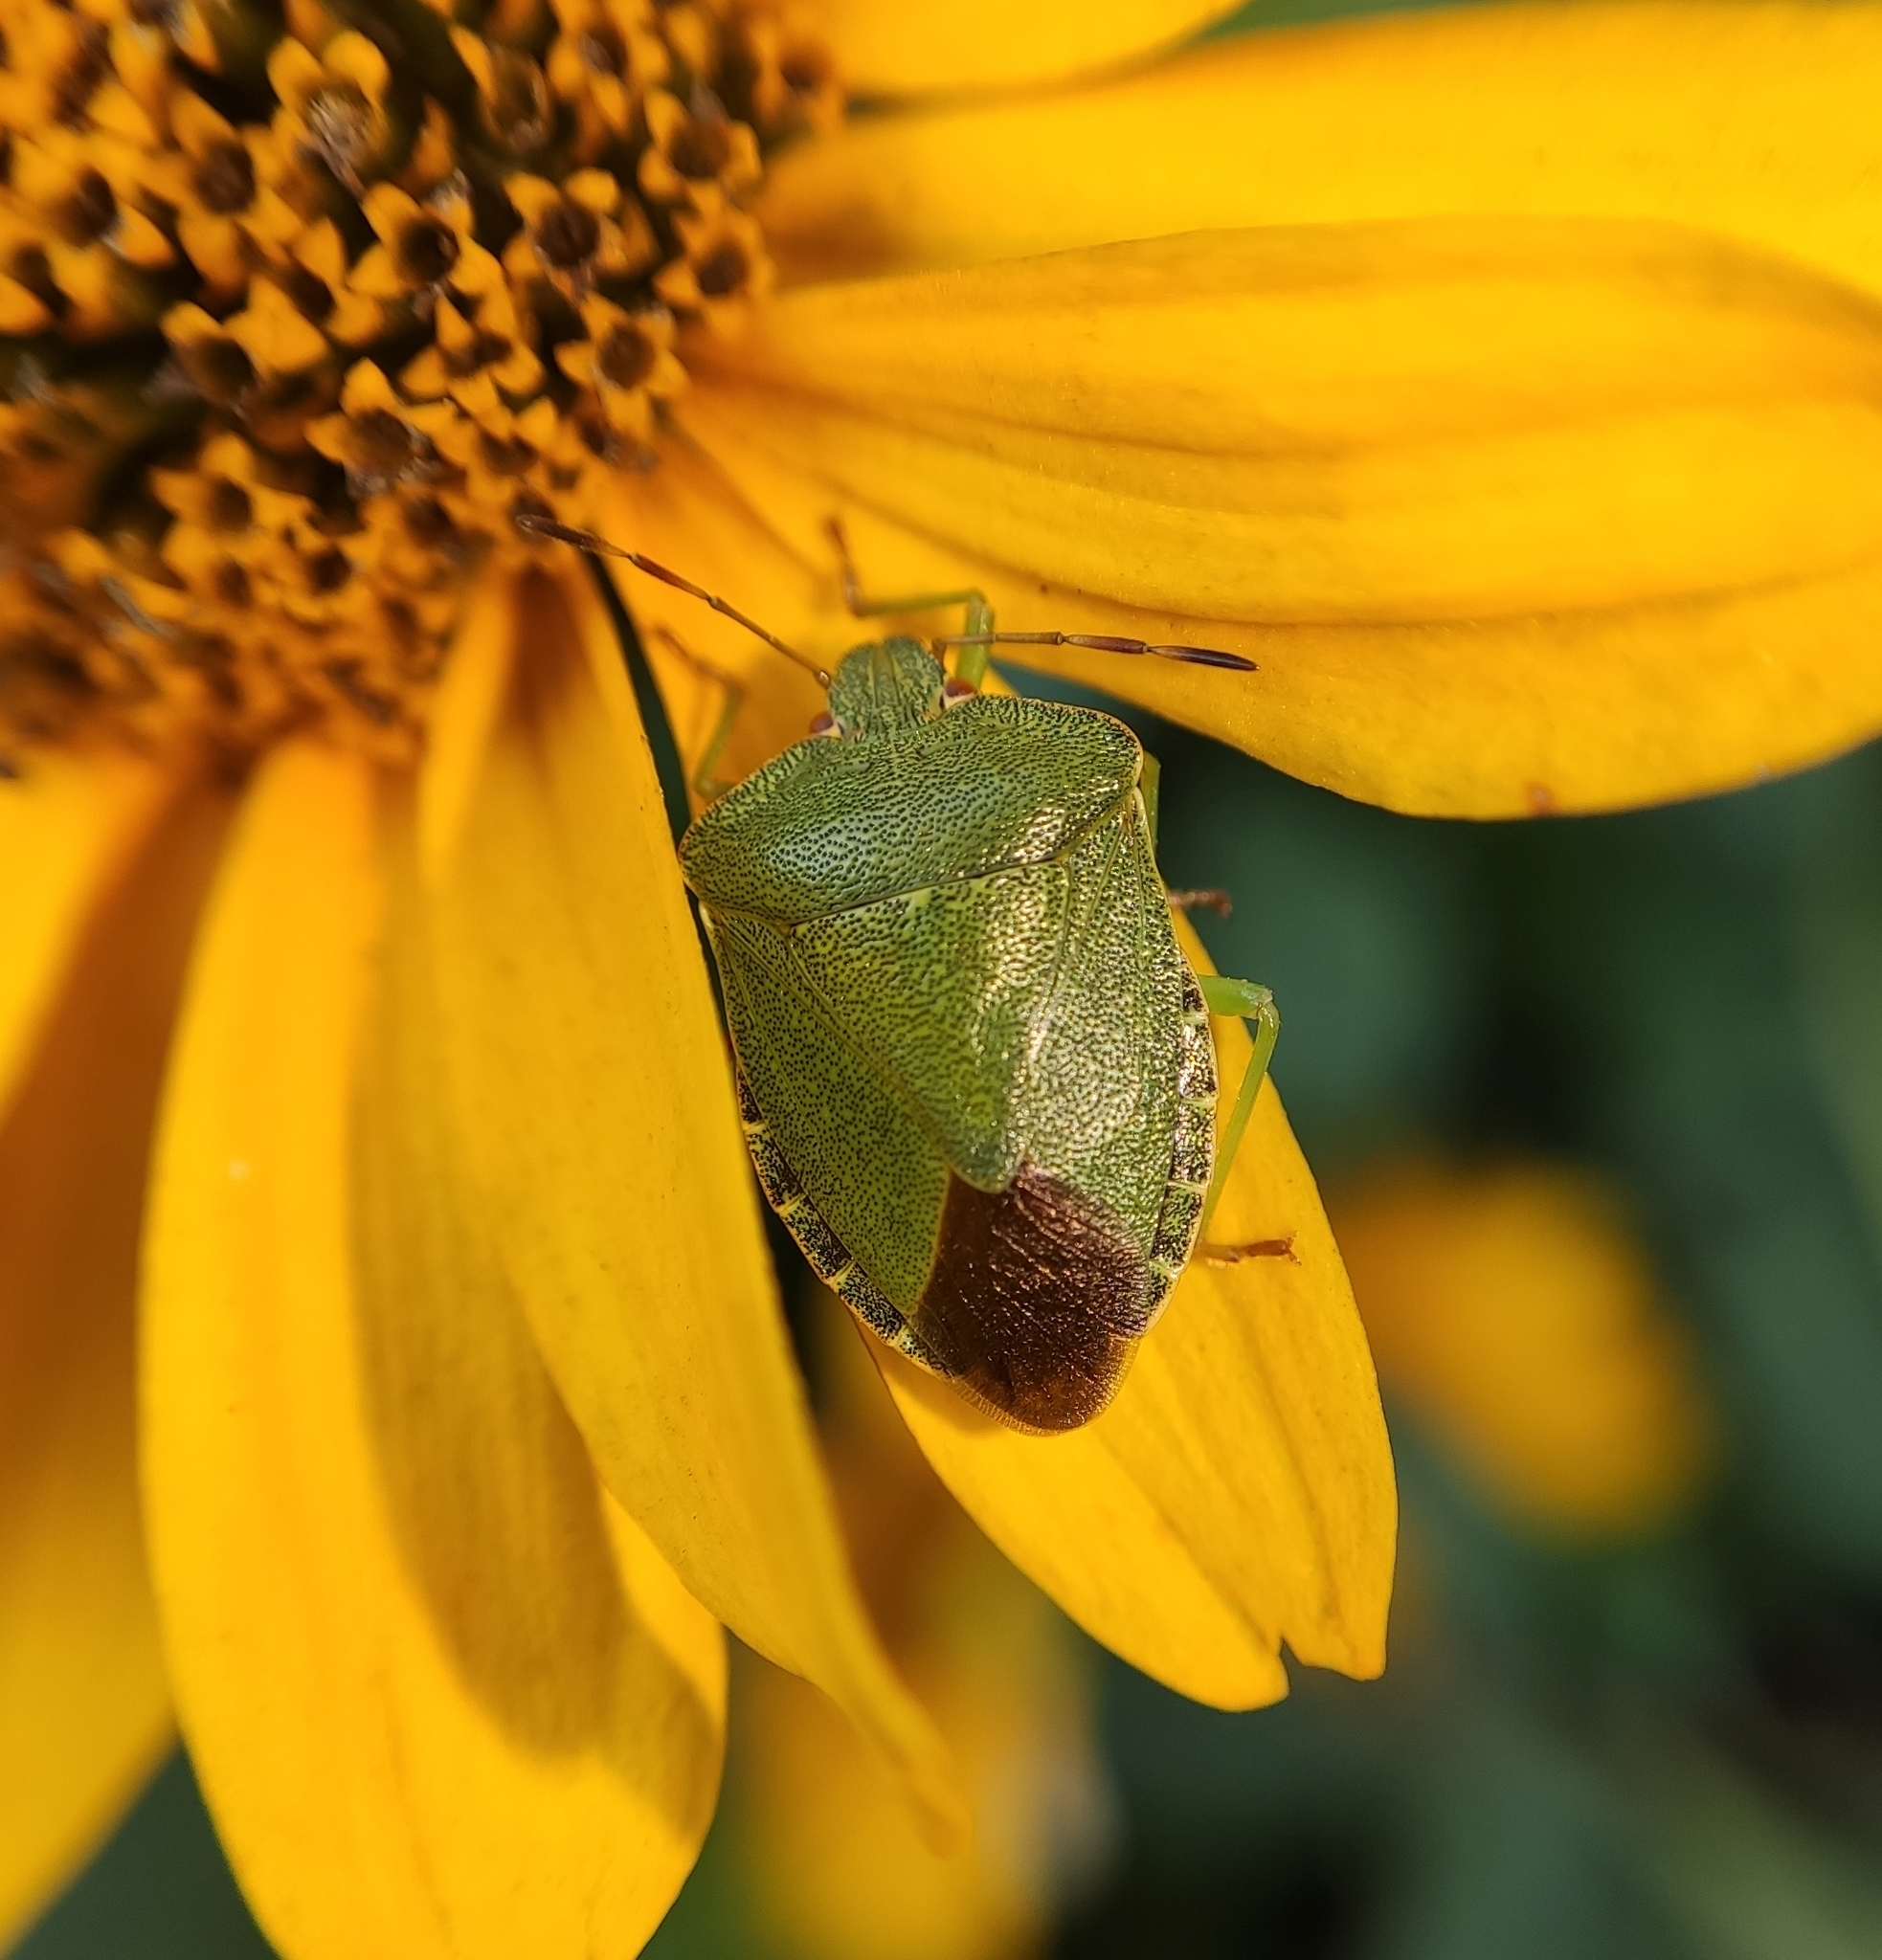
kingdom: Animalia
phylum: Arthropoda
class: Insecta
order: Hemiptera
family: Pentatomidae
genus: Palomena
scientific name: Palomena prasina
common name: Green shieldbug
